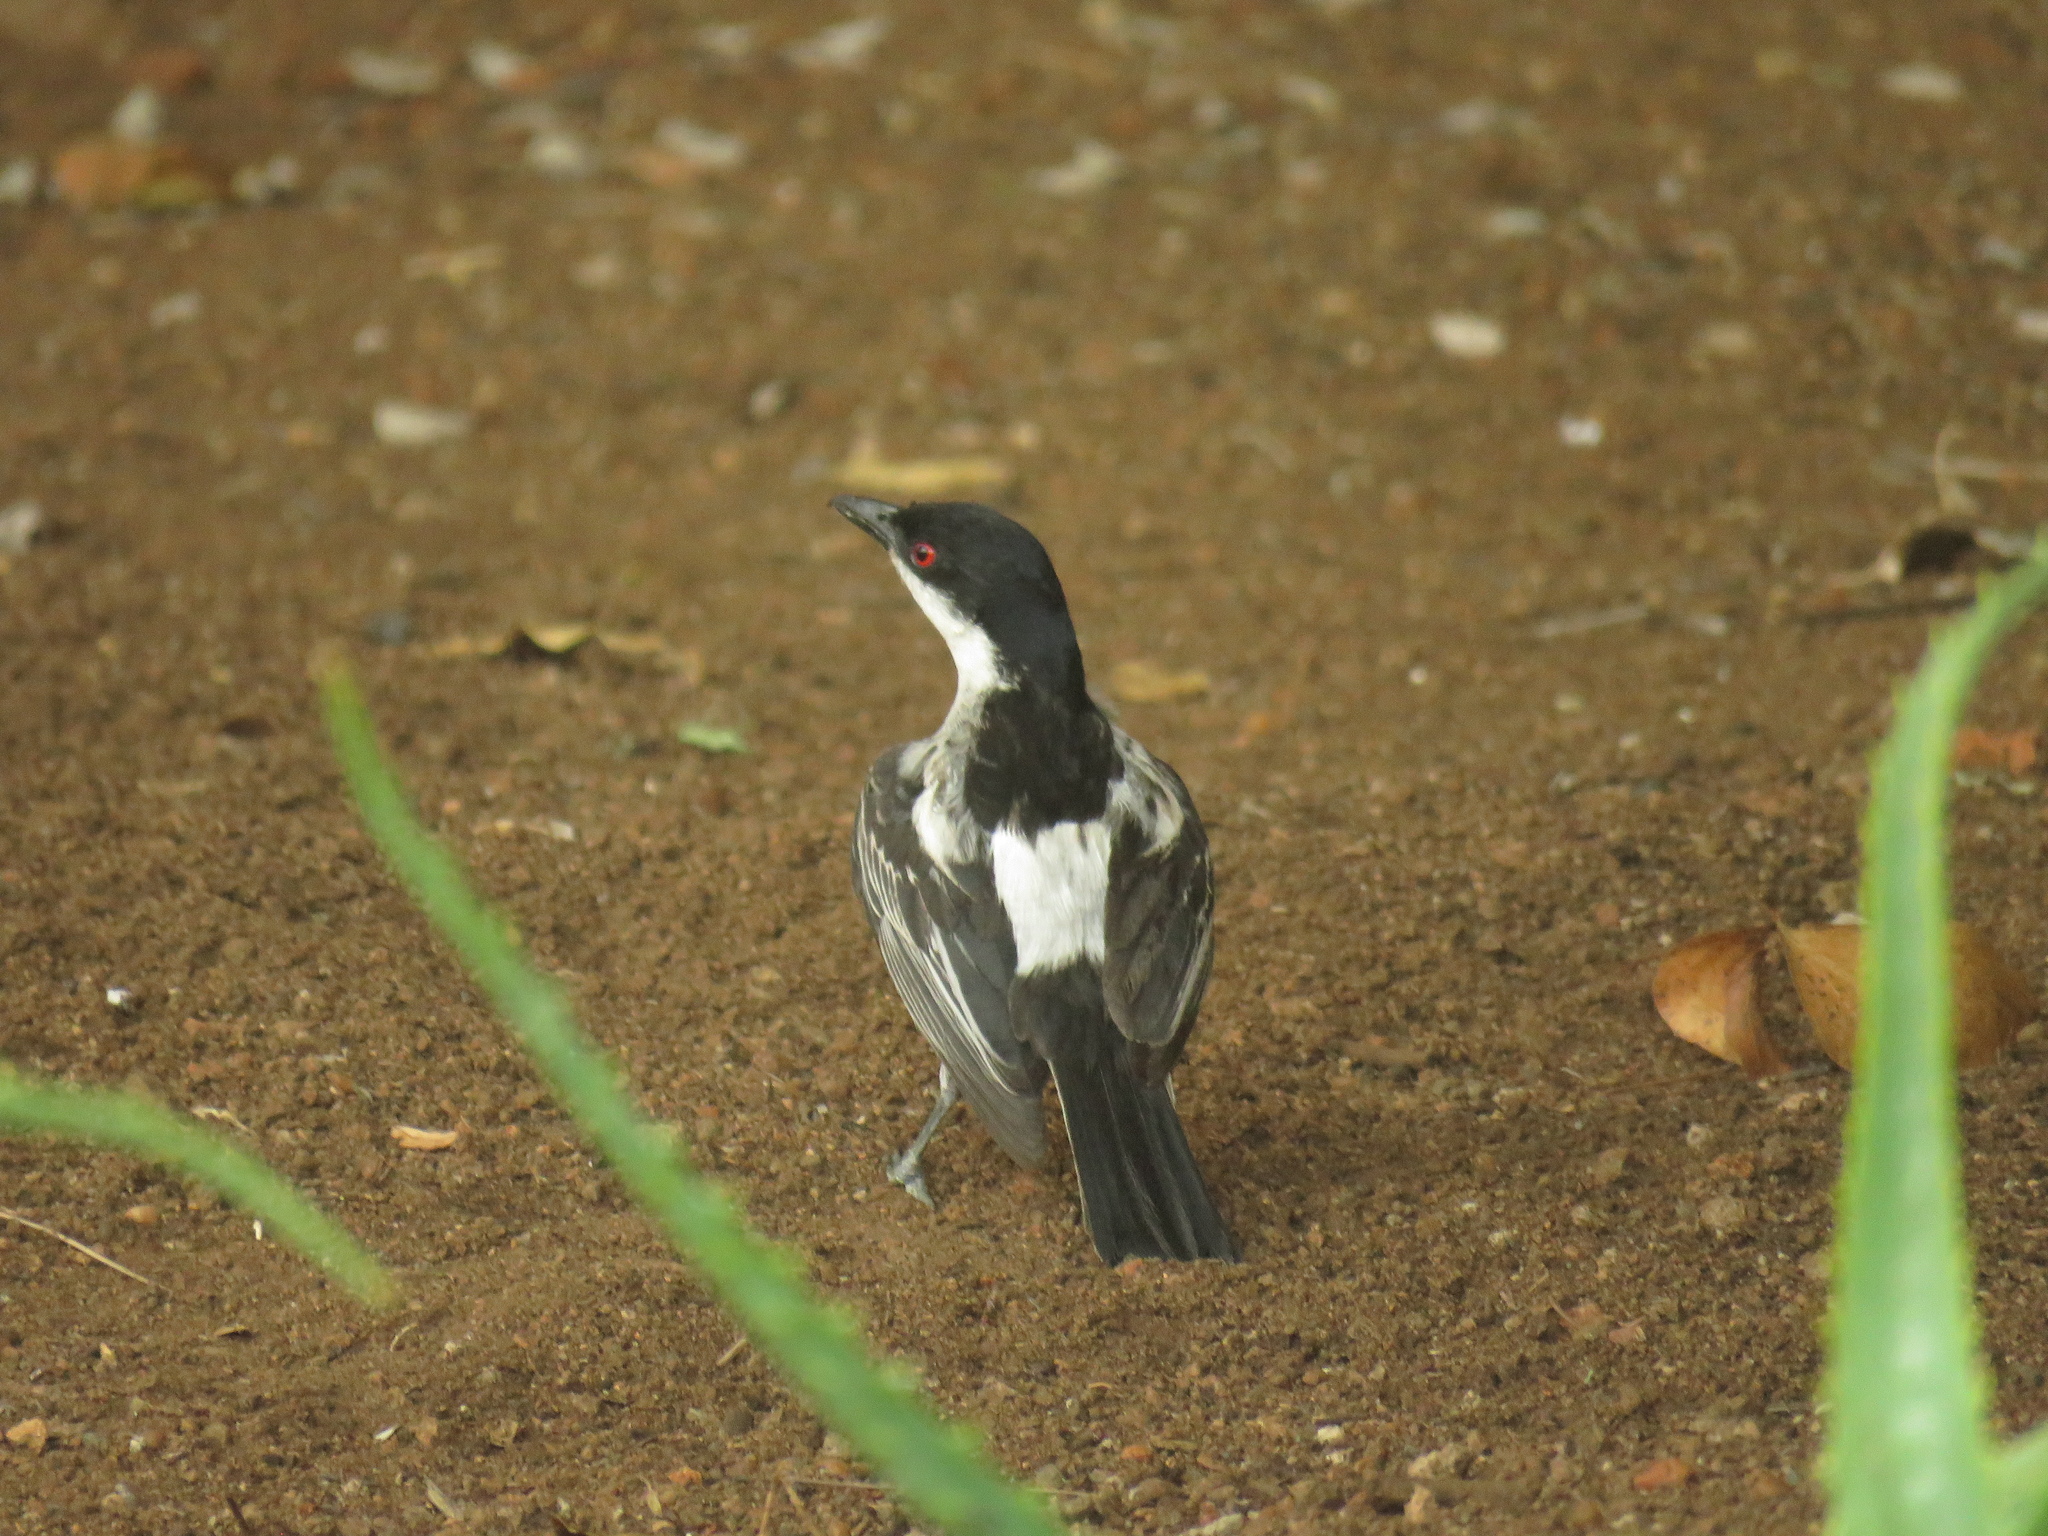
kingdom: Animalia
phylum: Chordata
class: Aves
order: Passeriformes
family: Malaconotidae
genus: Dryoscopus
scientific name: Dryoscopus cubla
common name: Black-backed puffback
